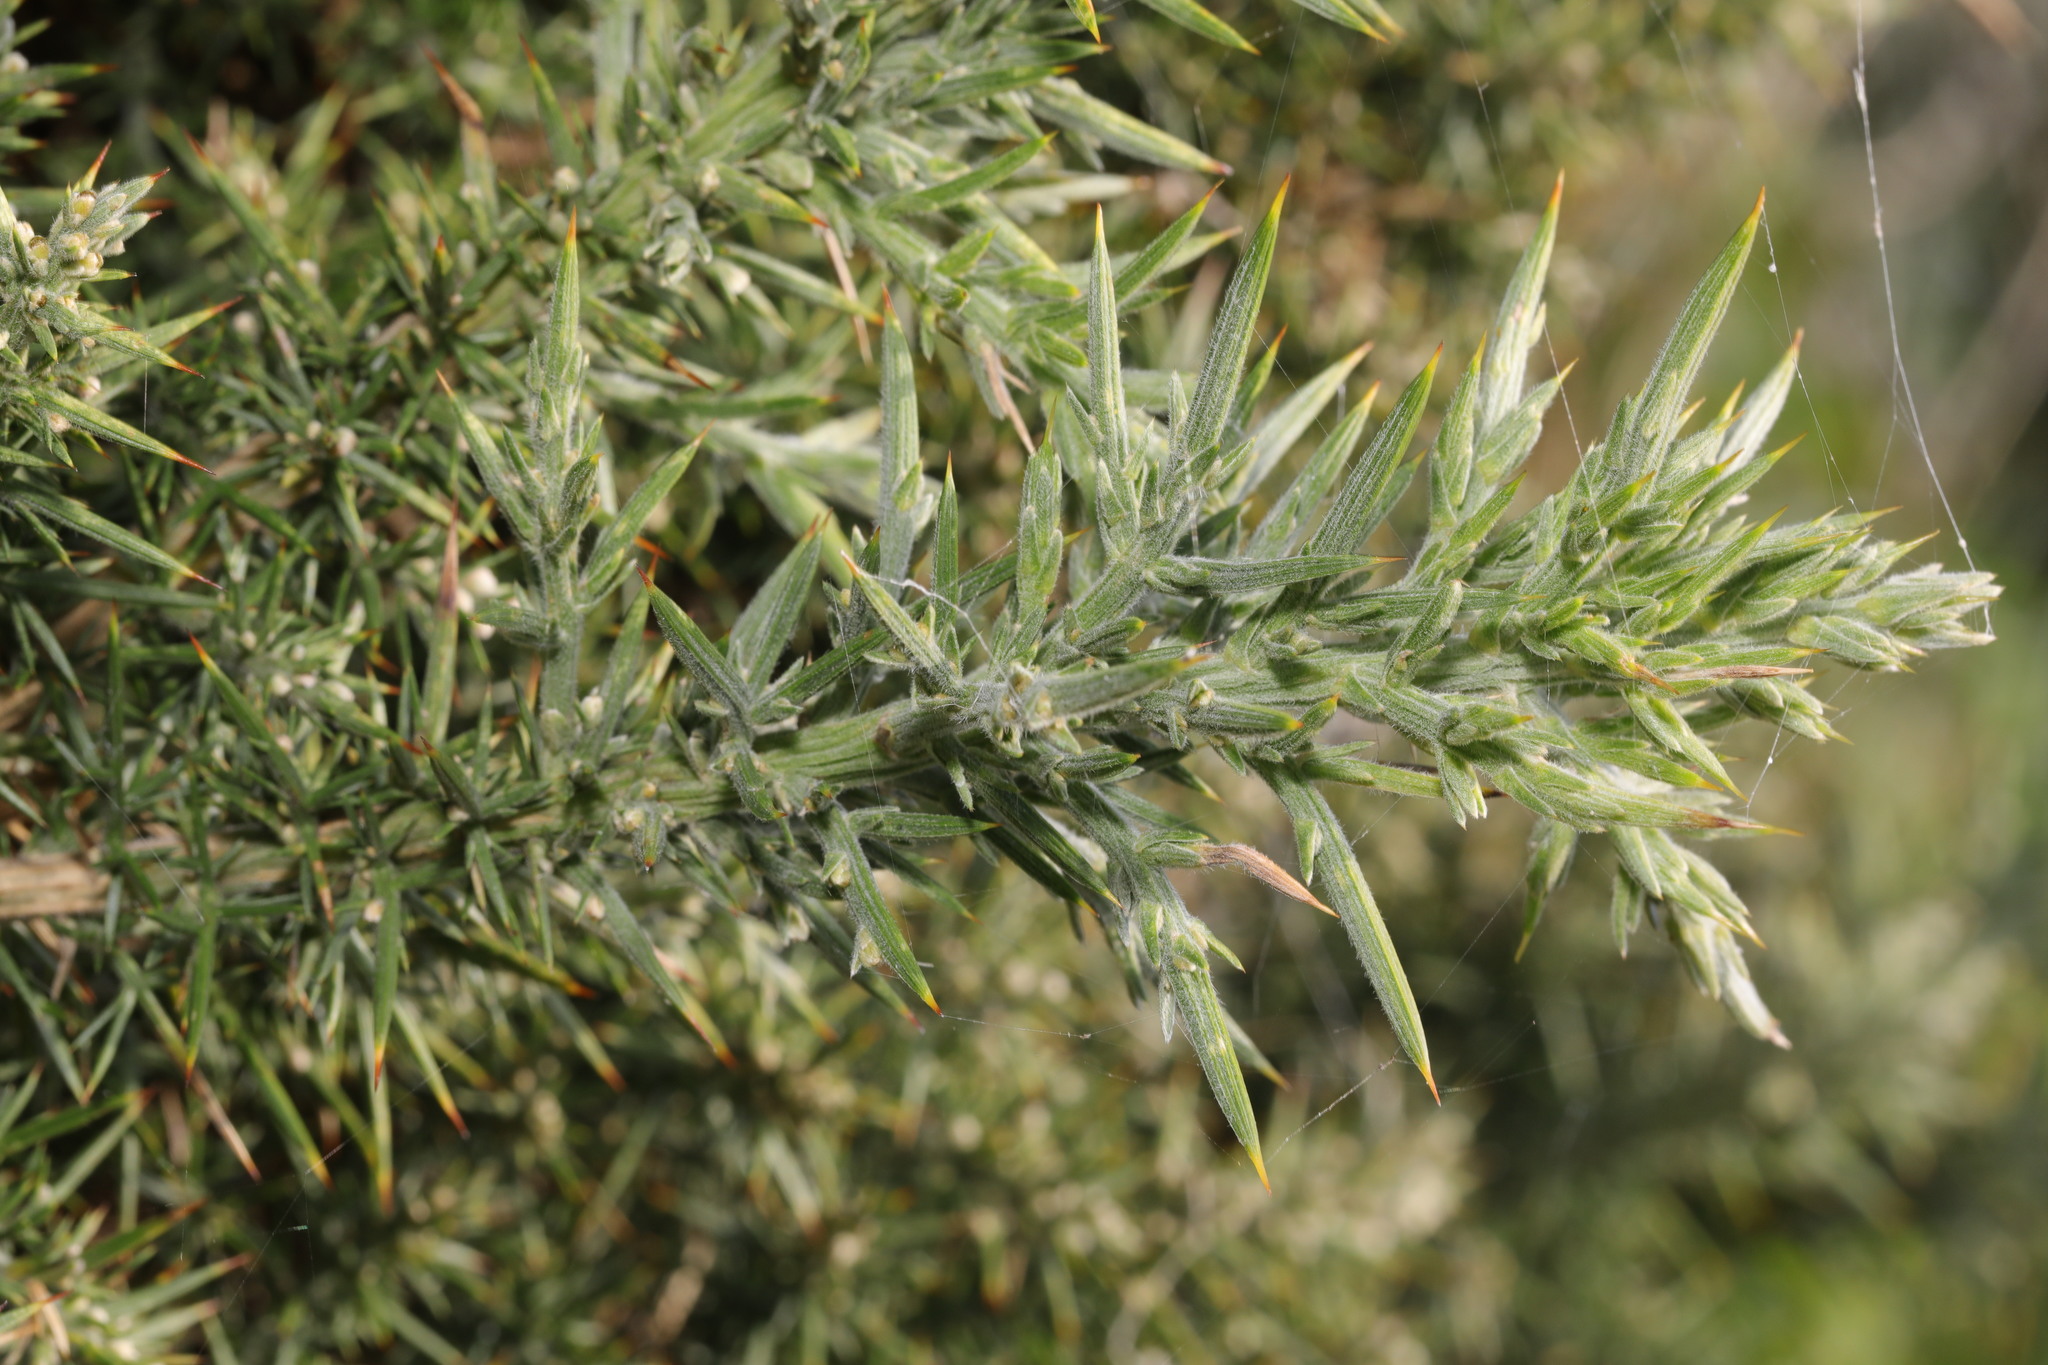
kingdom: Plantae
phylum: Tracheophyta
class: Magnoliopsida
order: Fabales
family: Fabaceae
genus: Ulex
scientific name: Ulex europaeus
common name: Common gorse
